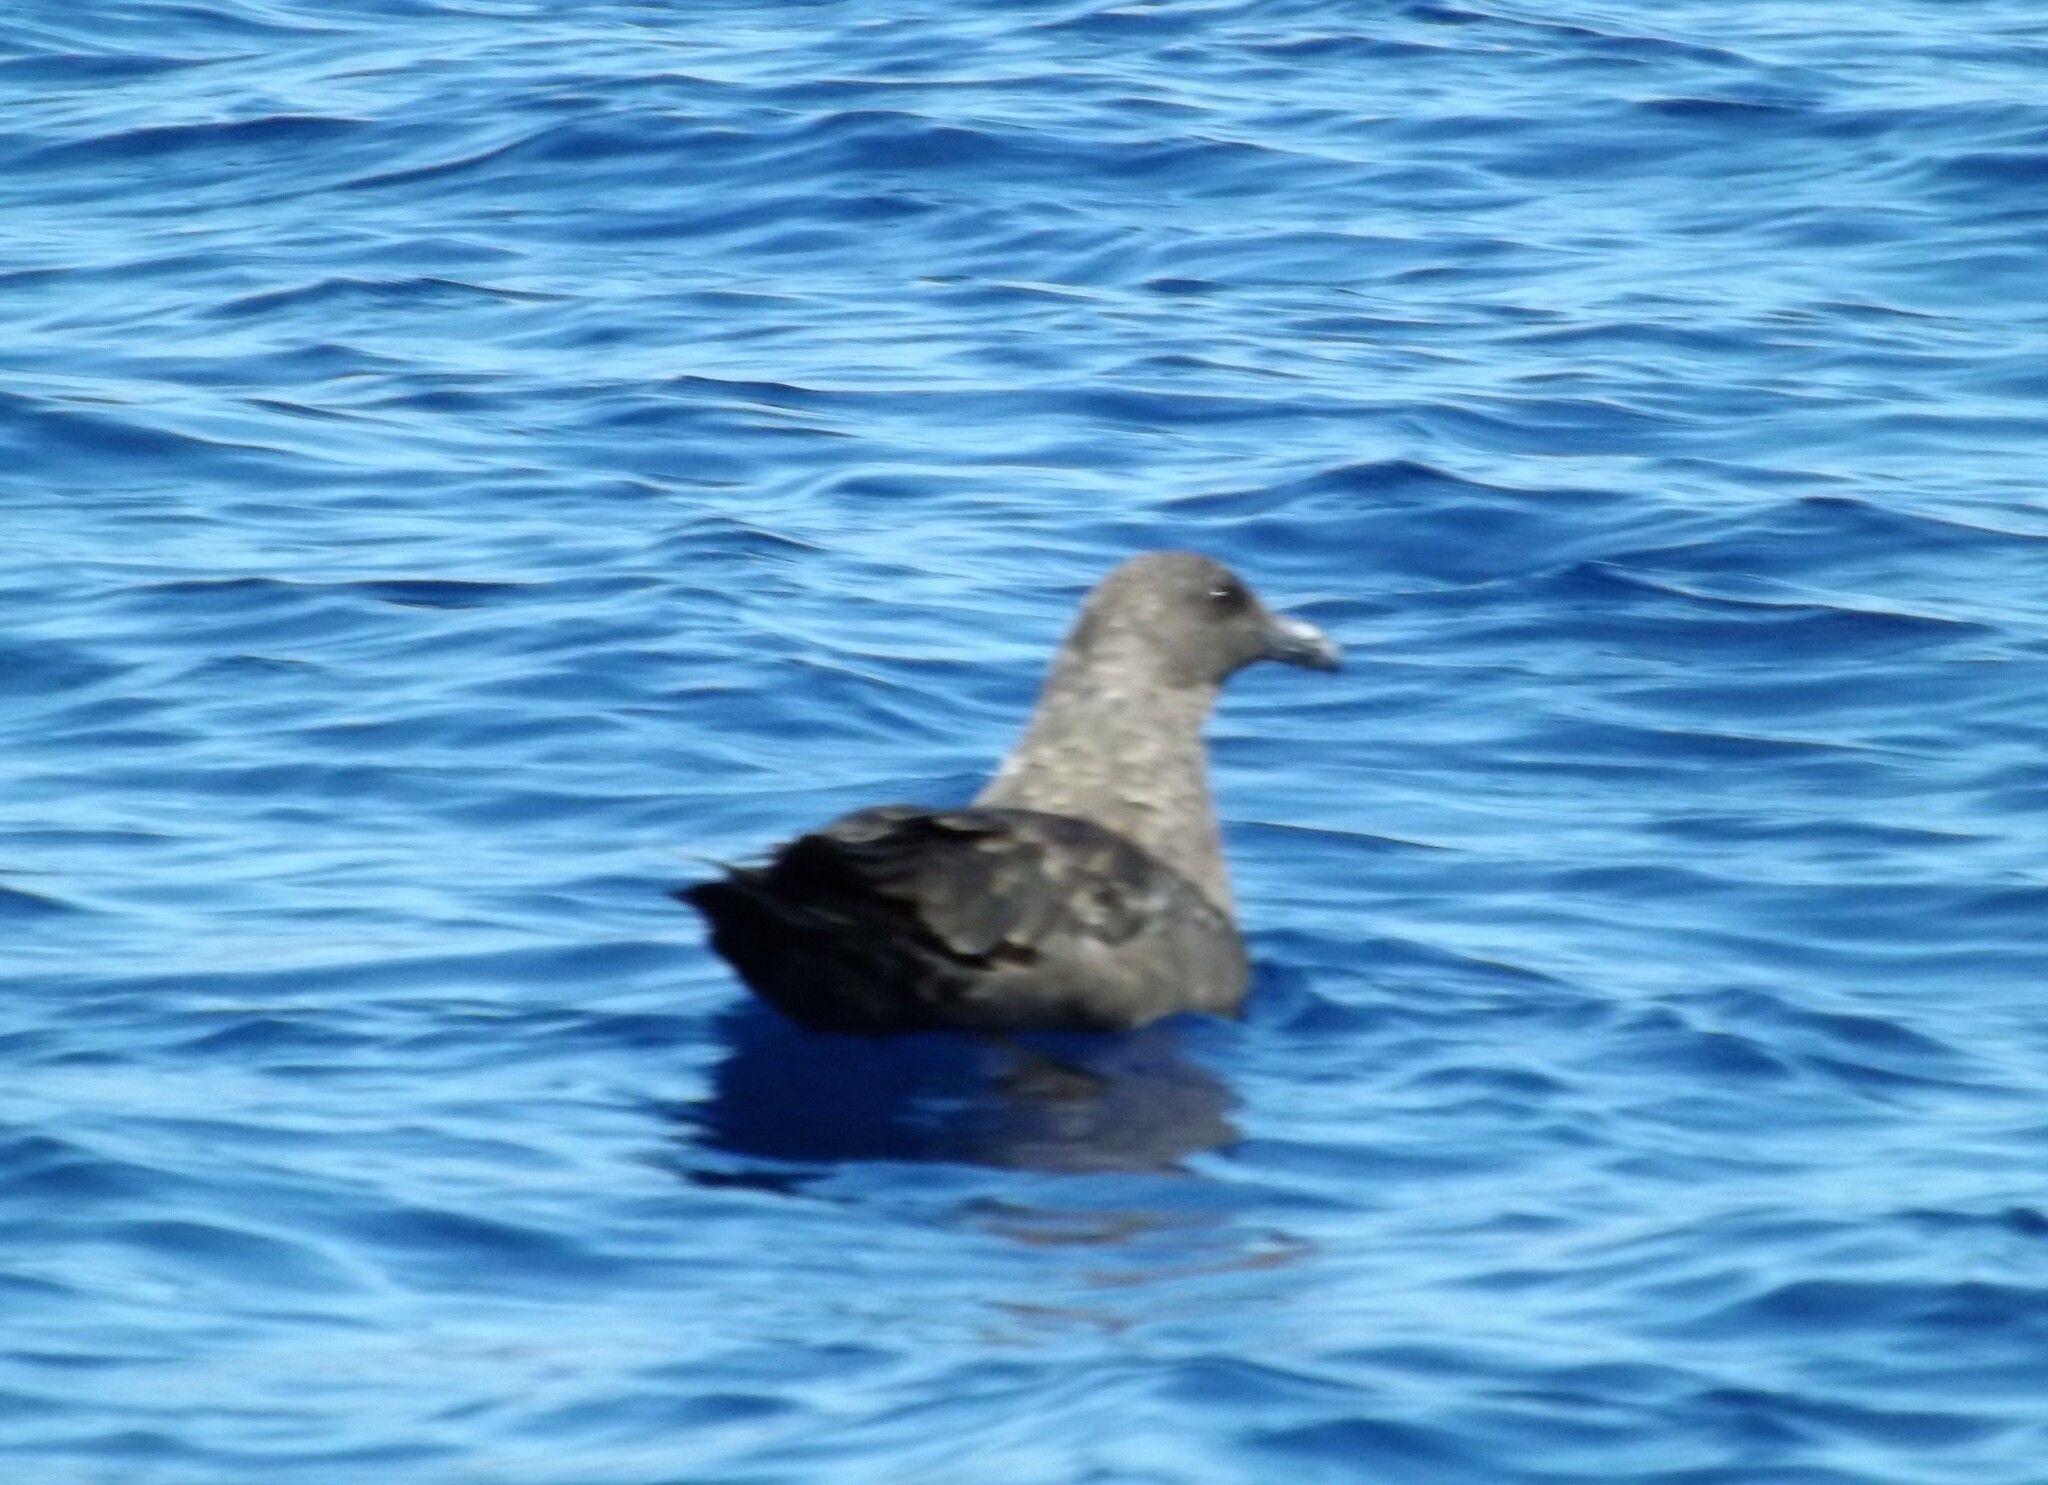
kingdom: Animalia
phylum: Chordata
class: Aves
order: Charadriiformes
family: Stercorariidae
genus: Stercorarius
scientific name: Stercorarius antarcticus
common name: Brown skua
